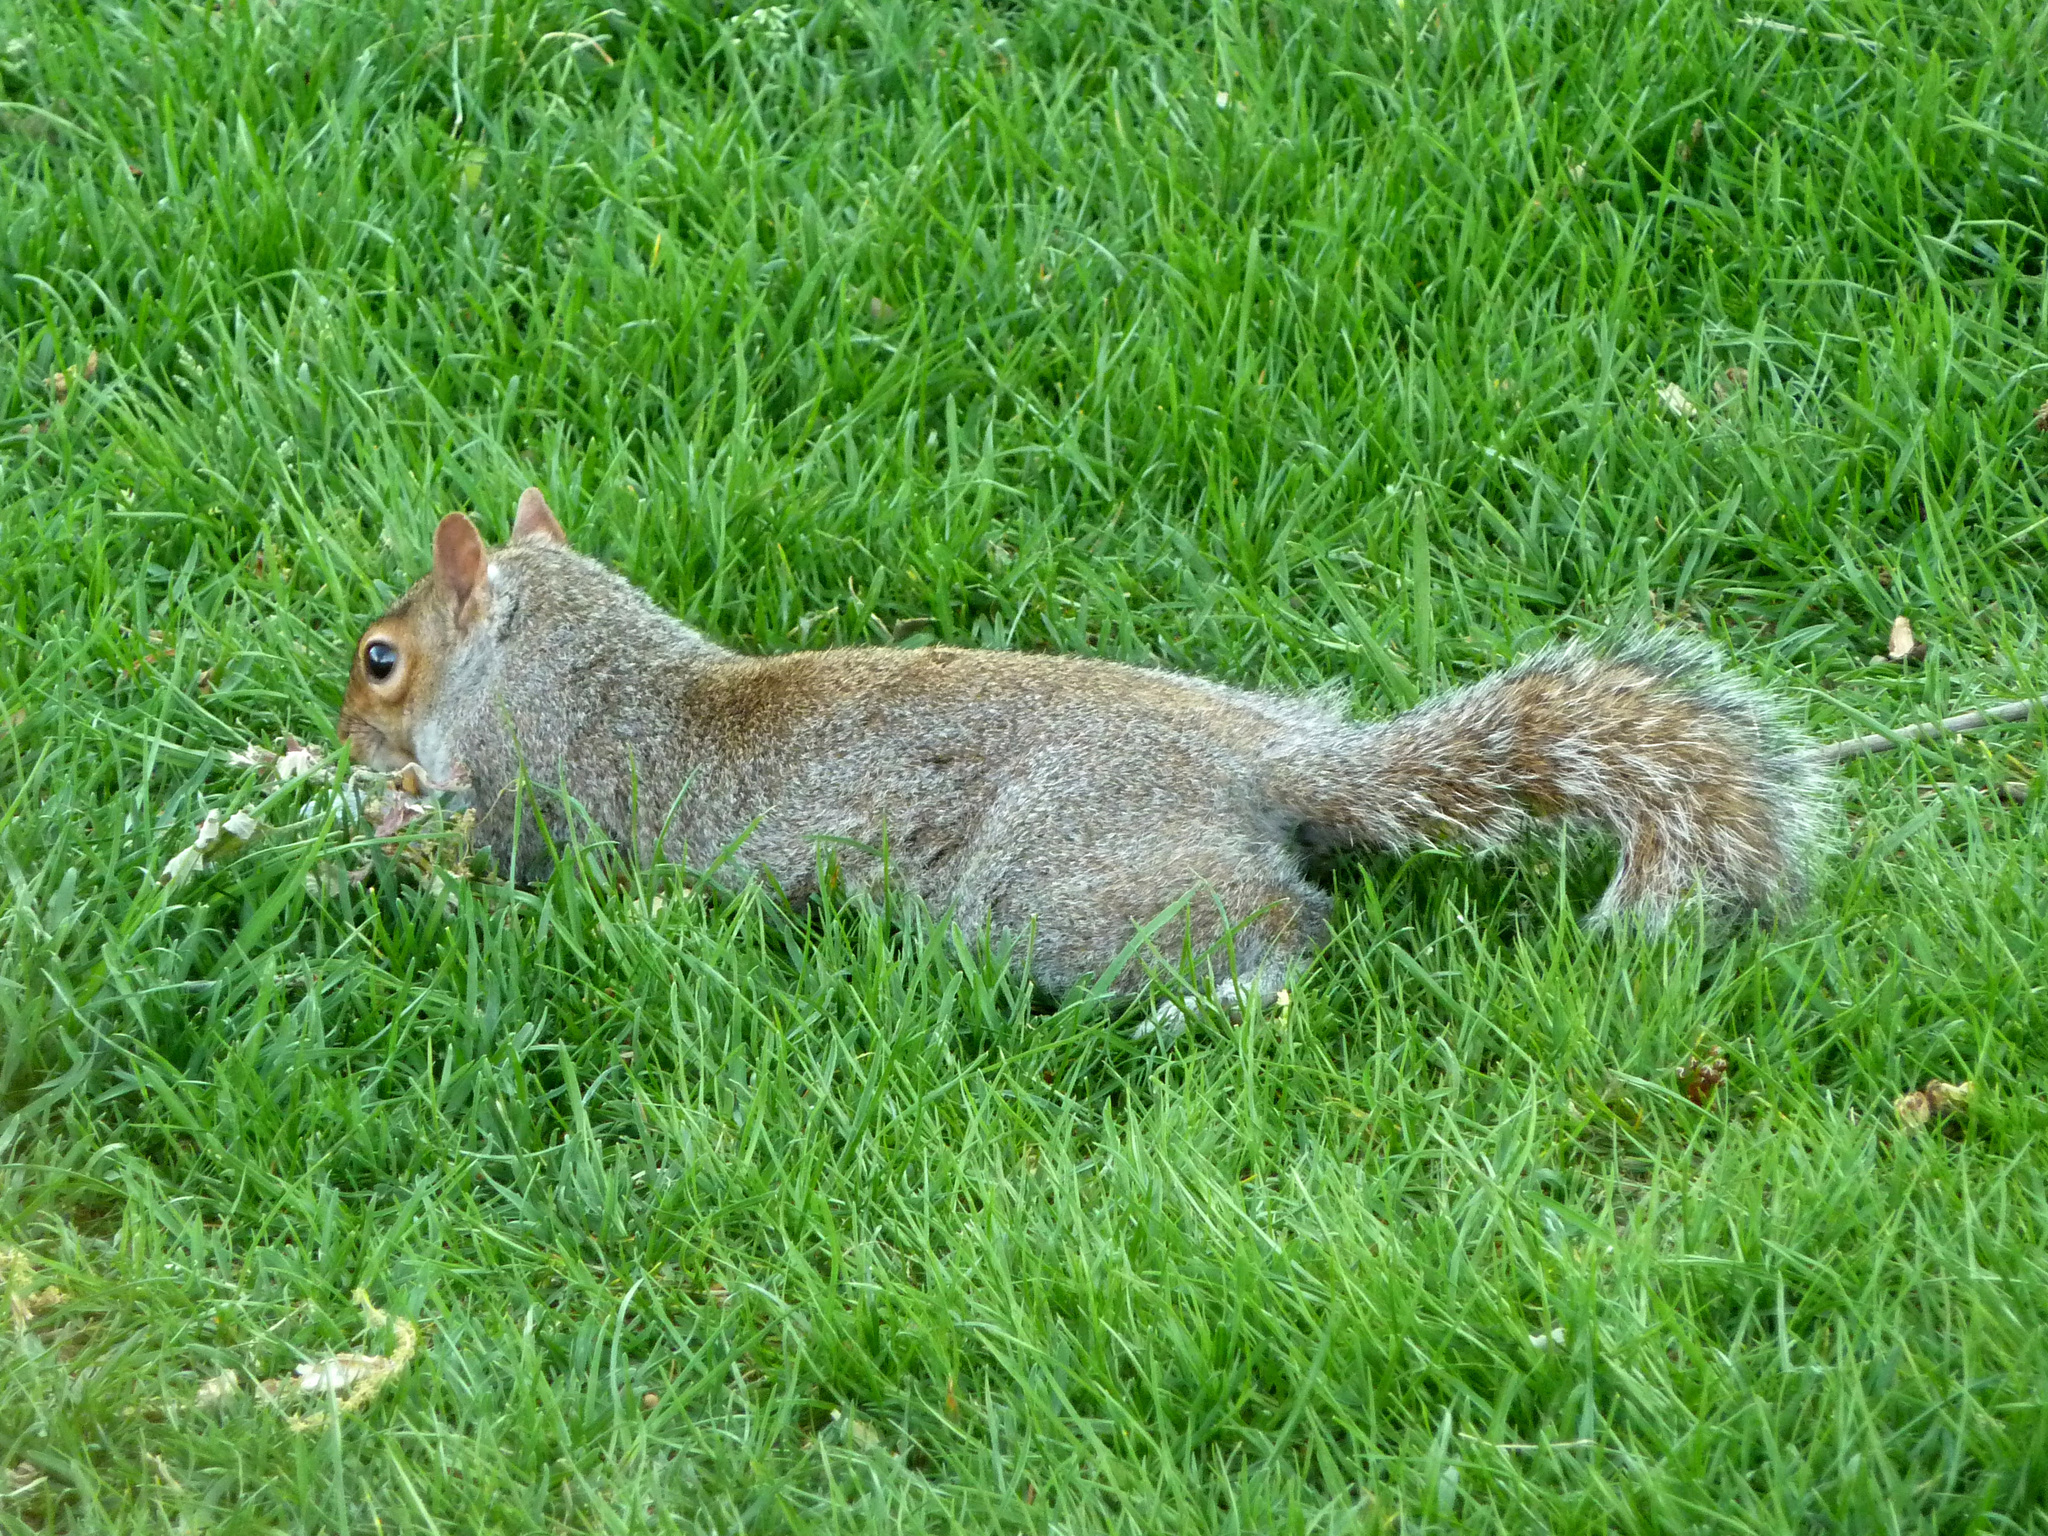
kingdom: Animalia
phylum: Chordata
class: Mammalia
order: Rodentia
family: Sciuridae
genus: Sciurus
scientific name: Sciurus carolinensis
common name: Eastern gray squirrel
